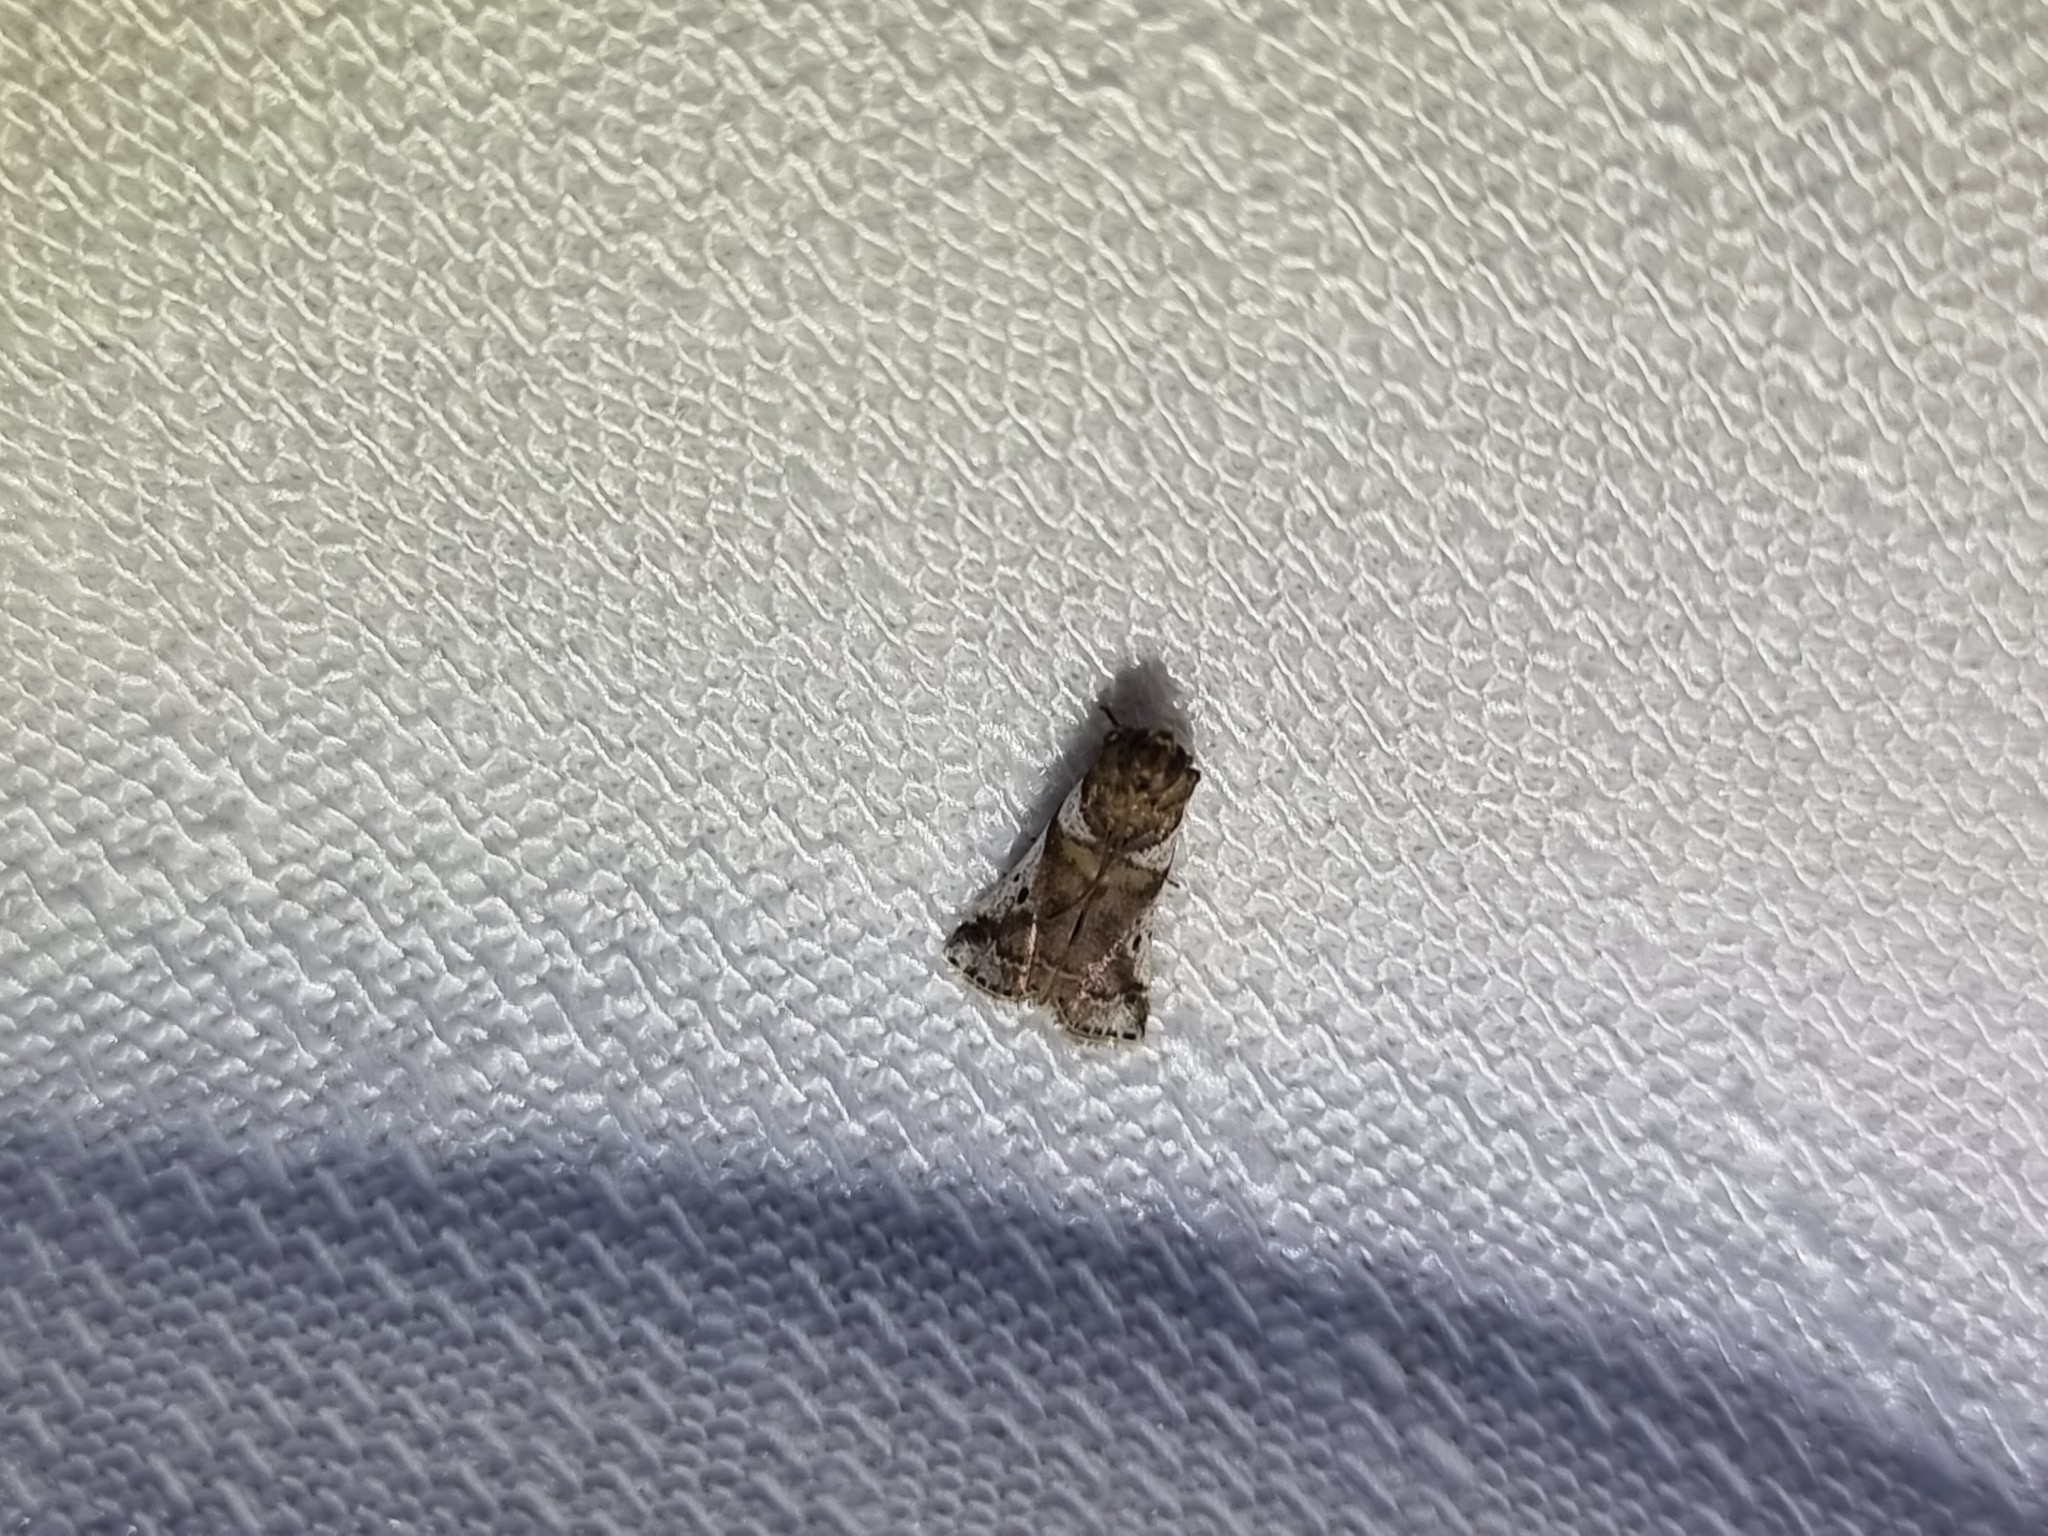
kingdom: Animalia
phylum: Arthropoda
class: Insecta
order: Lepidoptera
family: Psychidae
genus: Lepidoscia
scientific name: Lepidoscia heliochares
